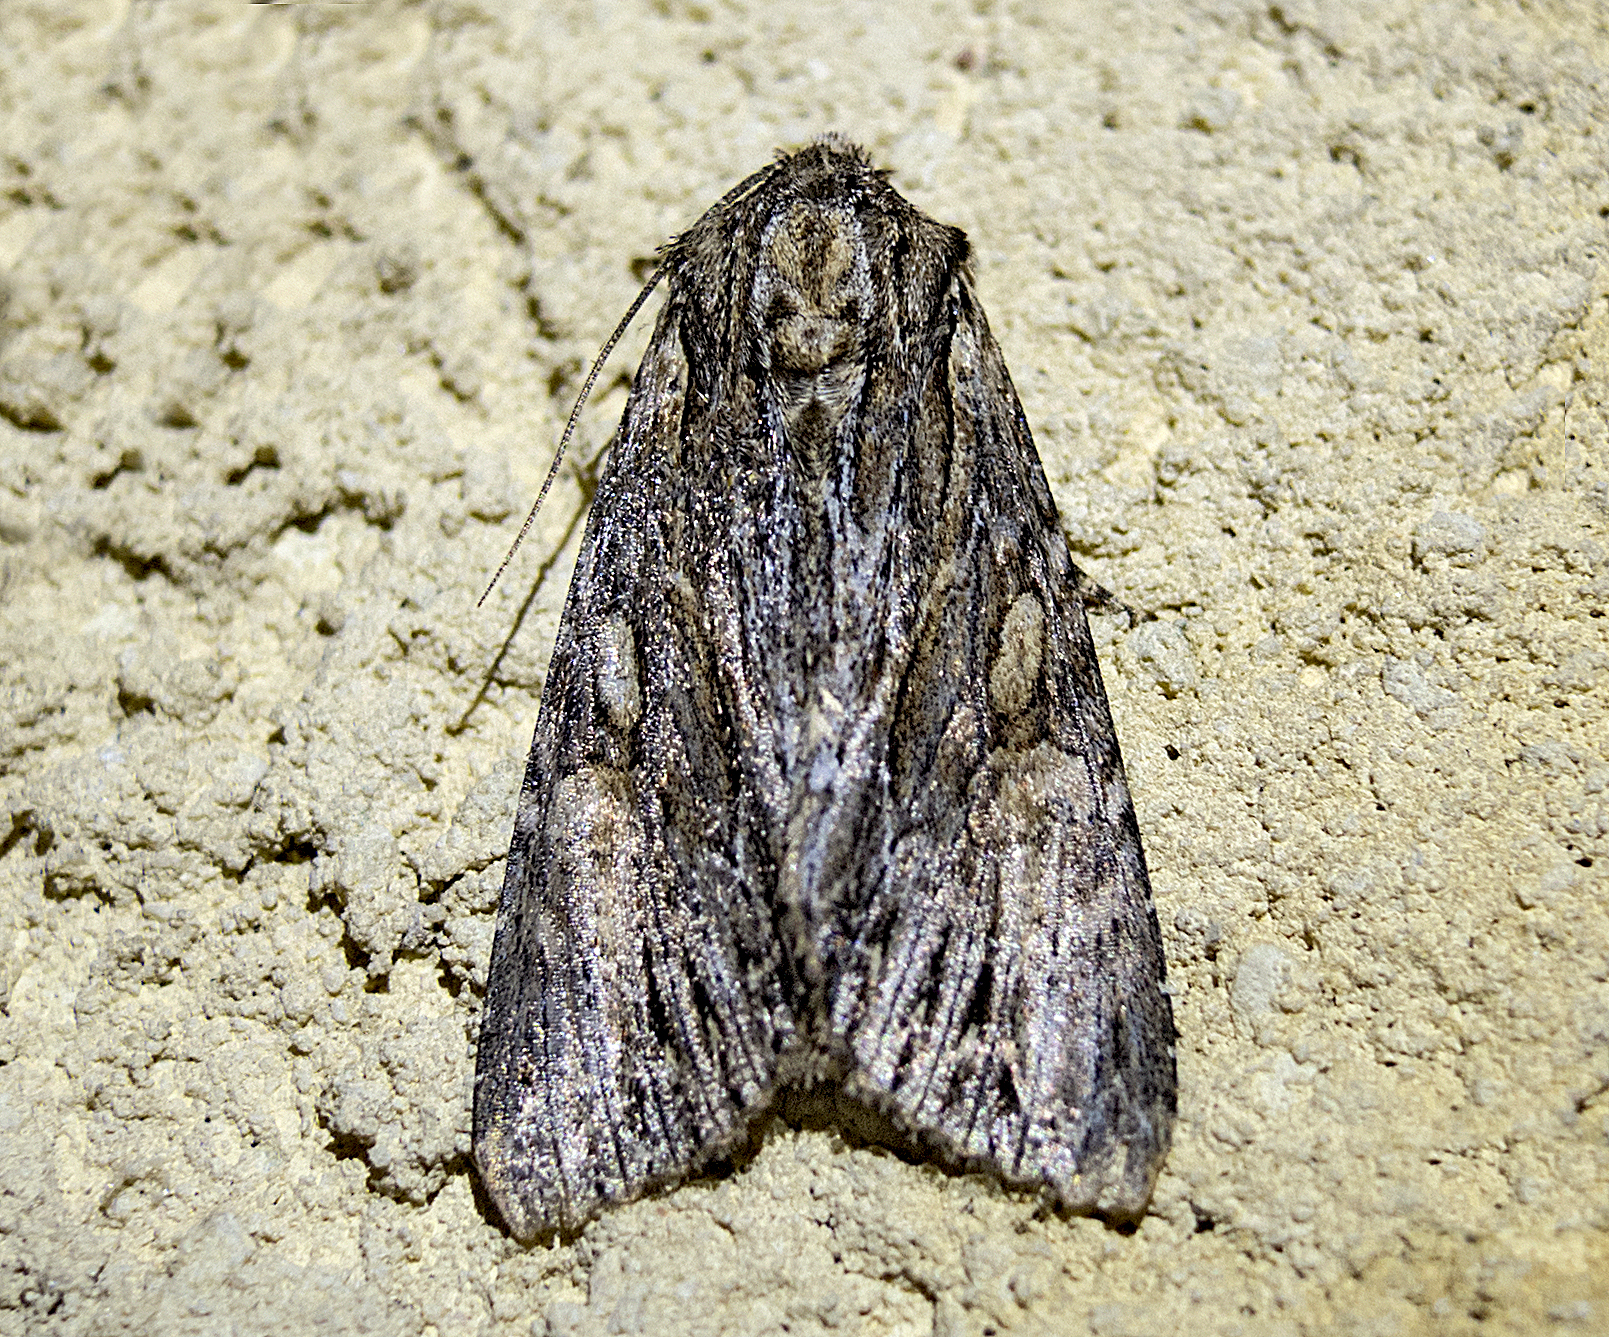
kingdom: Animalia
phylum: Arthropoda
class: Insecta
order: Lepidoptera
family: Noctuidae
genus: Apamea
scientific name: Apamea sicula
